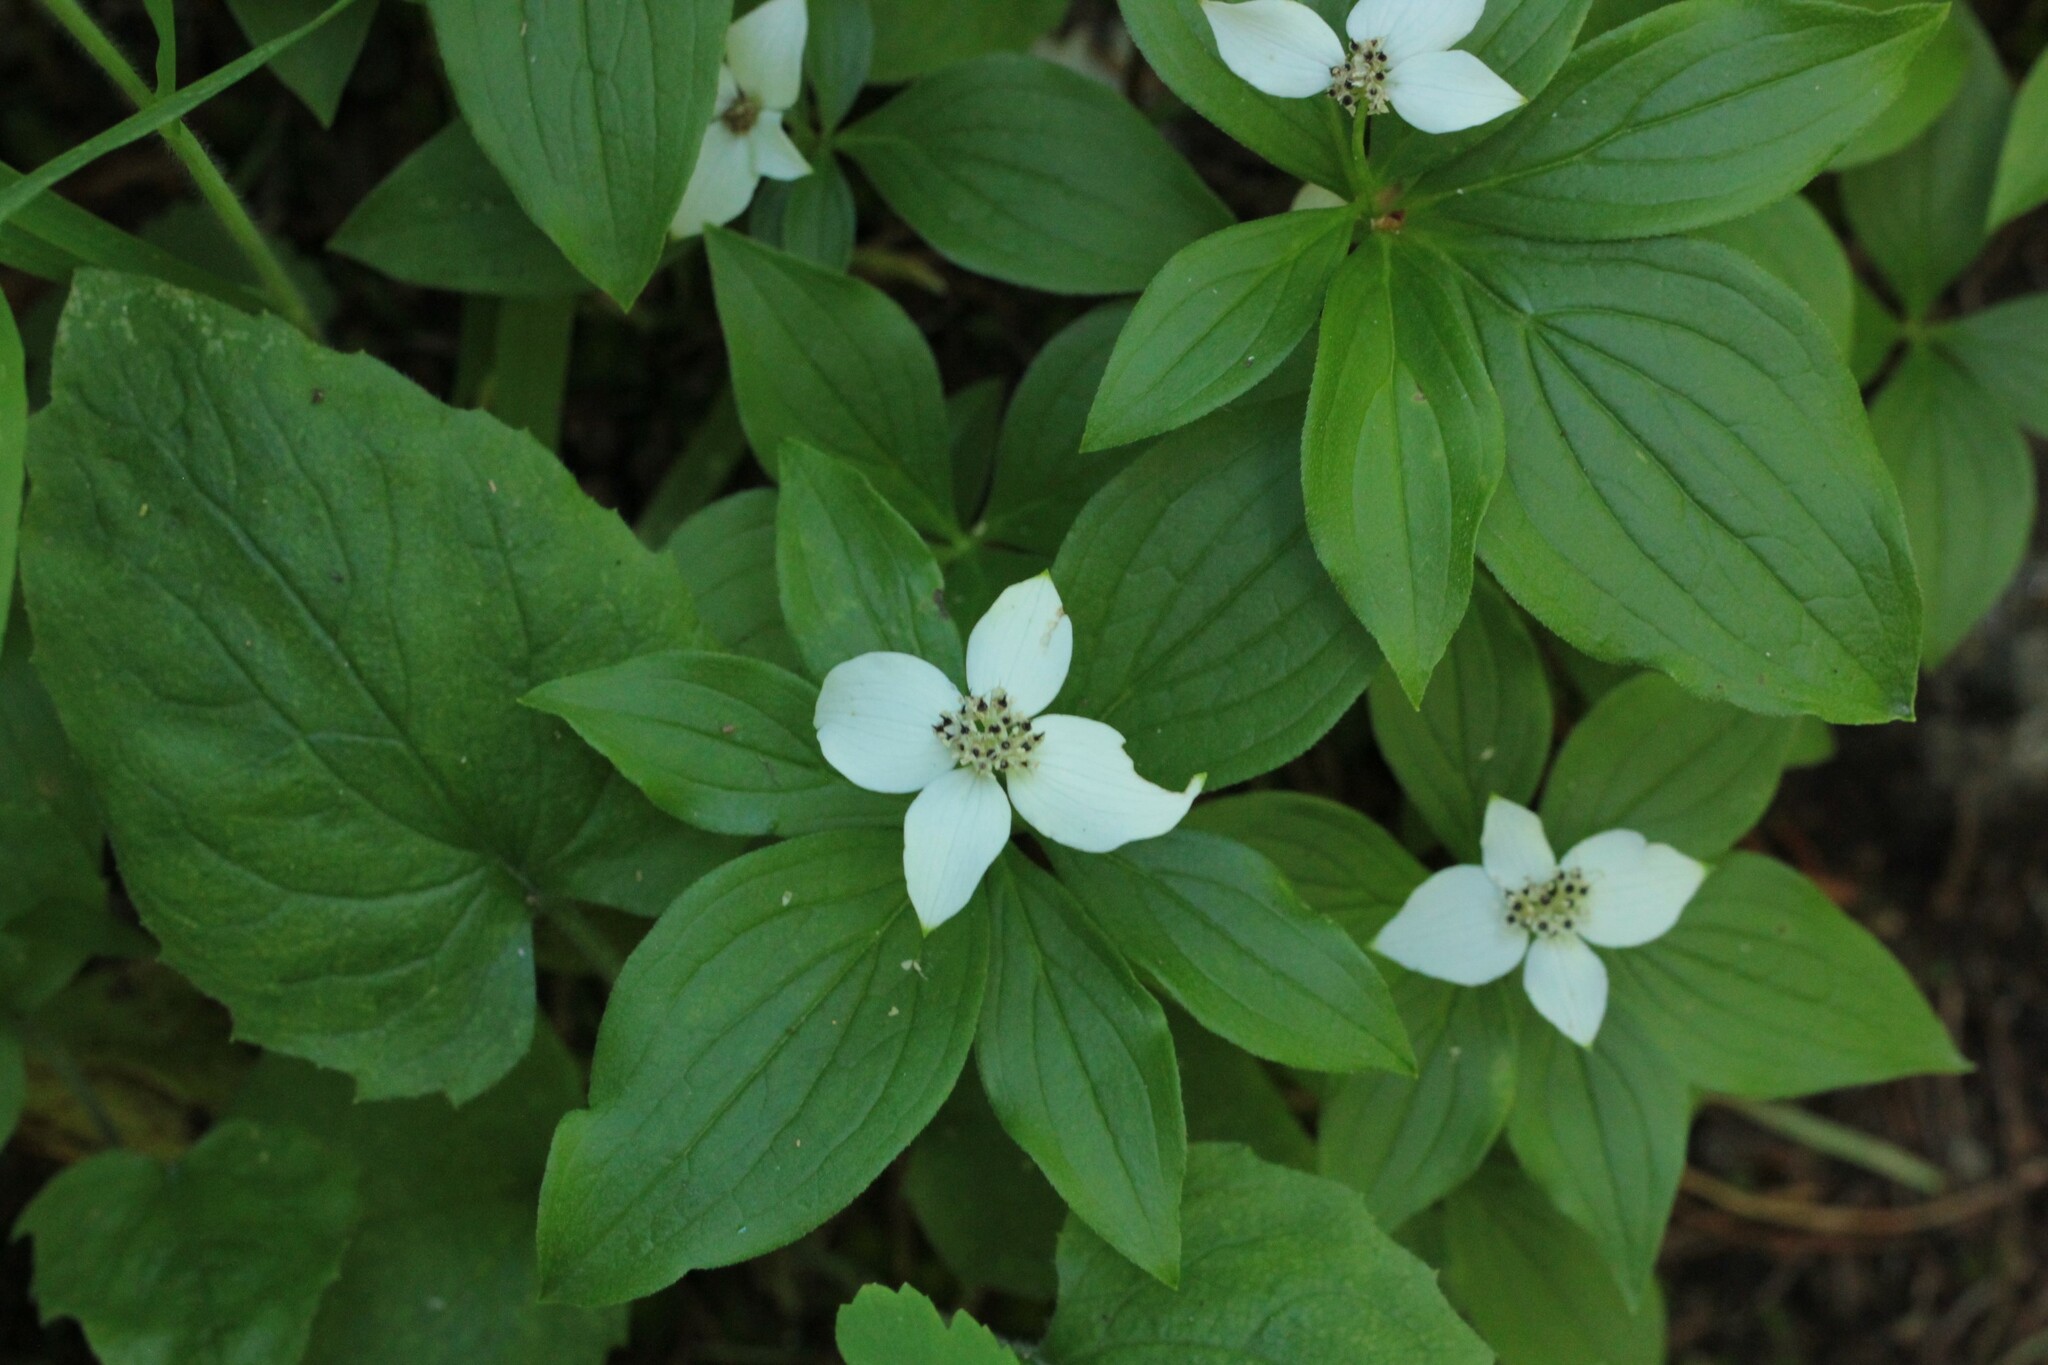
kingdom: Plantae
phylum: Tracheophyta
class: Magnoliopsida
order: Cornales
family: Cornaceae
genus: Cornus
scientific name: Cornus canadensis
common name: Creeping dogwood
